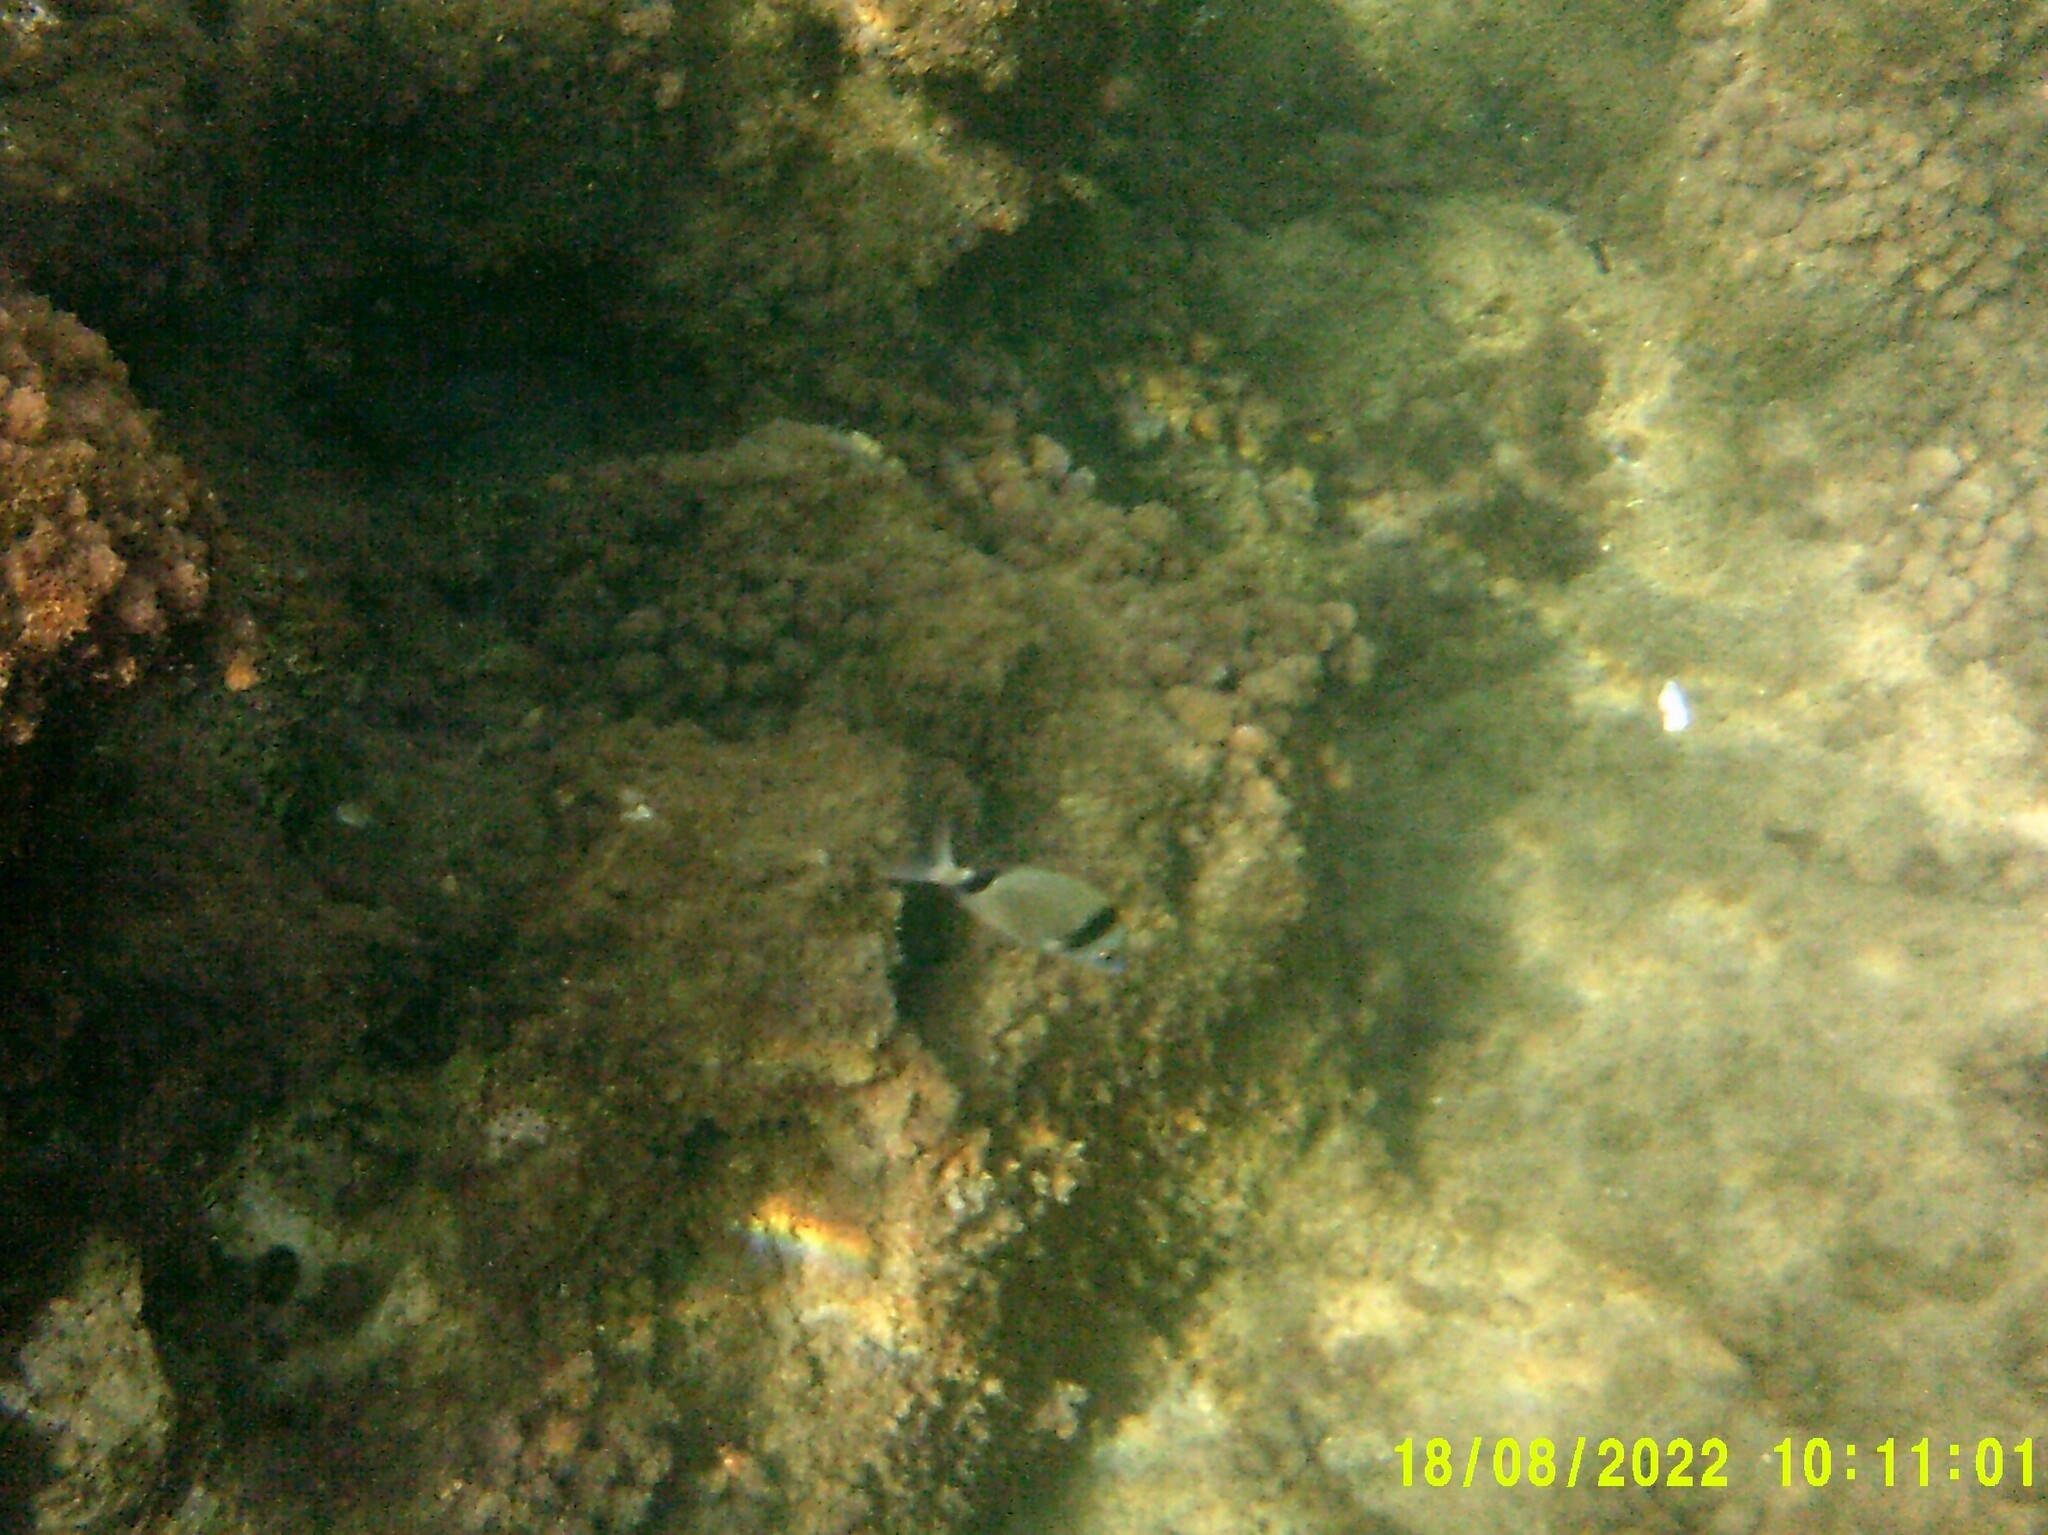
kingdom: Animalia
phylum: Chordata
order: Perciformes
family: Sparidae
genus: Diplodus
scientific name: Diplodus vulgaris
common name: Common two-banded seabream
